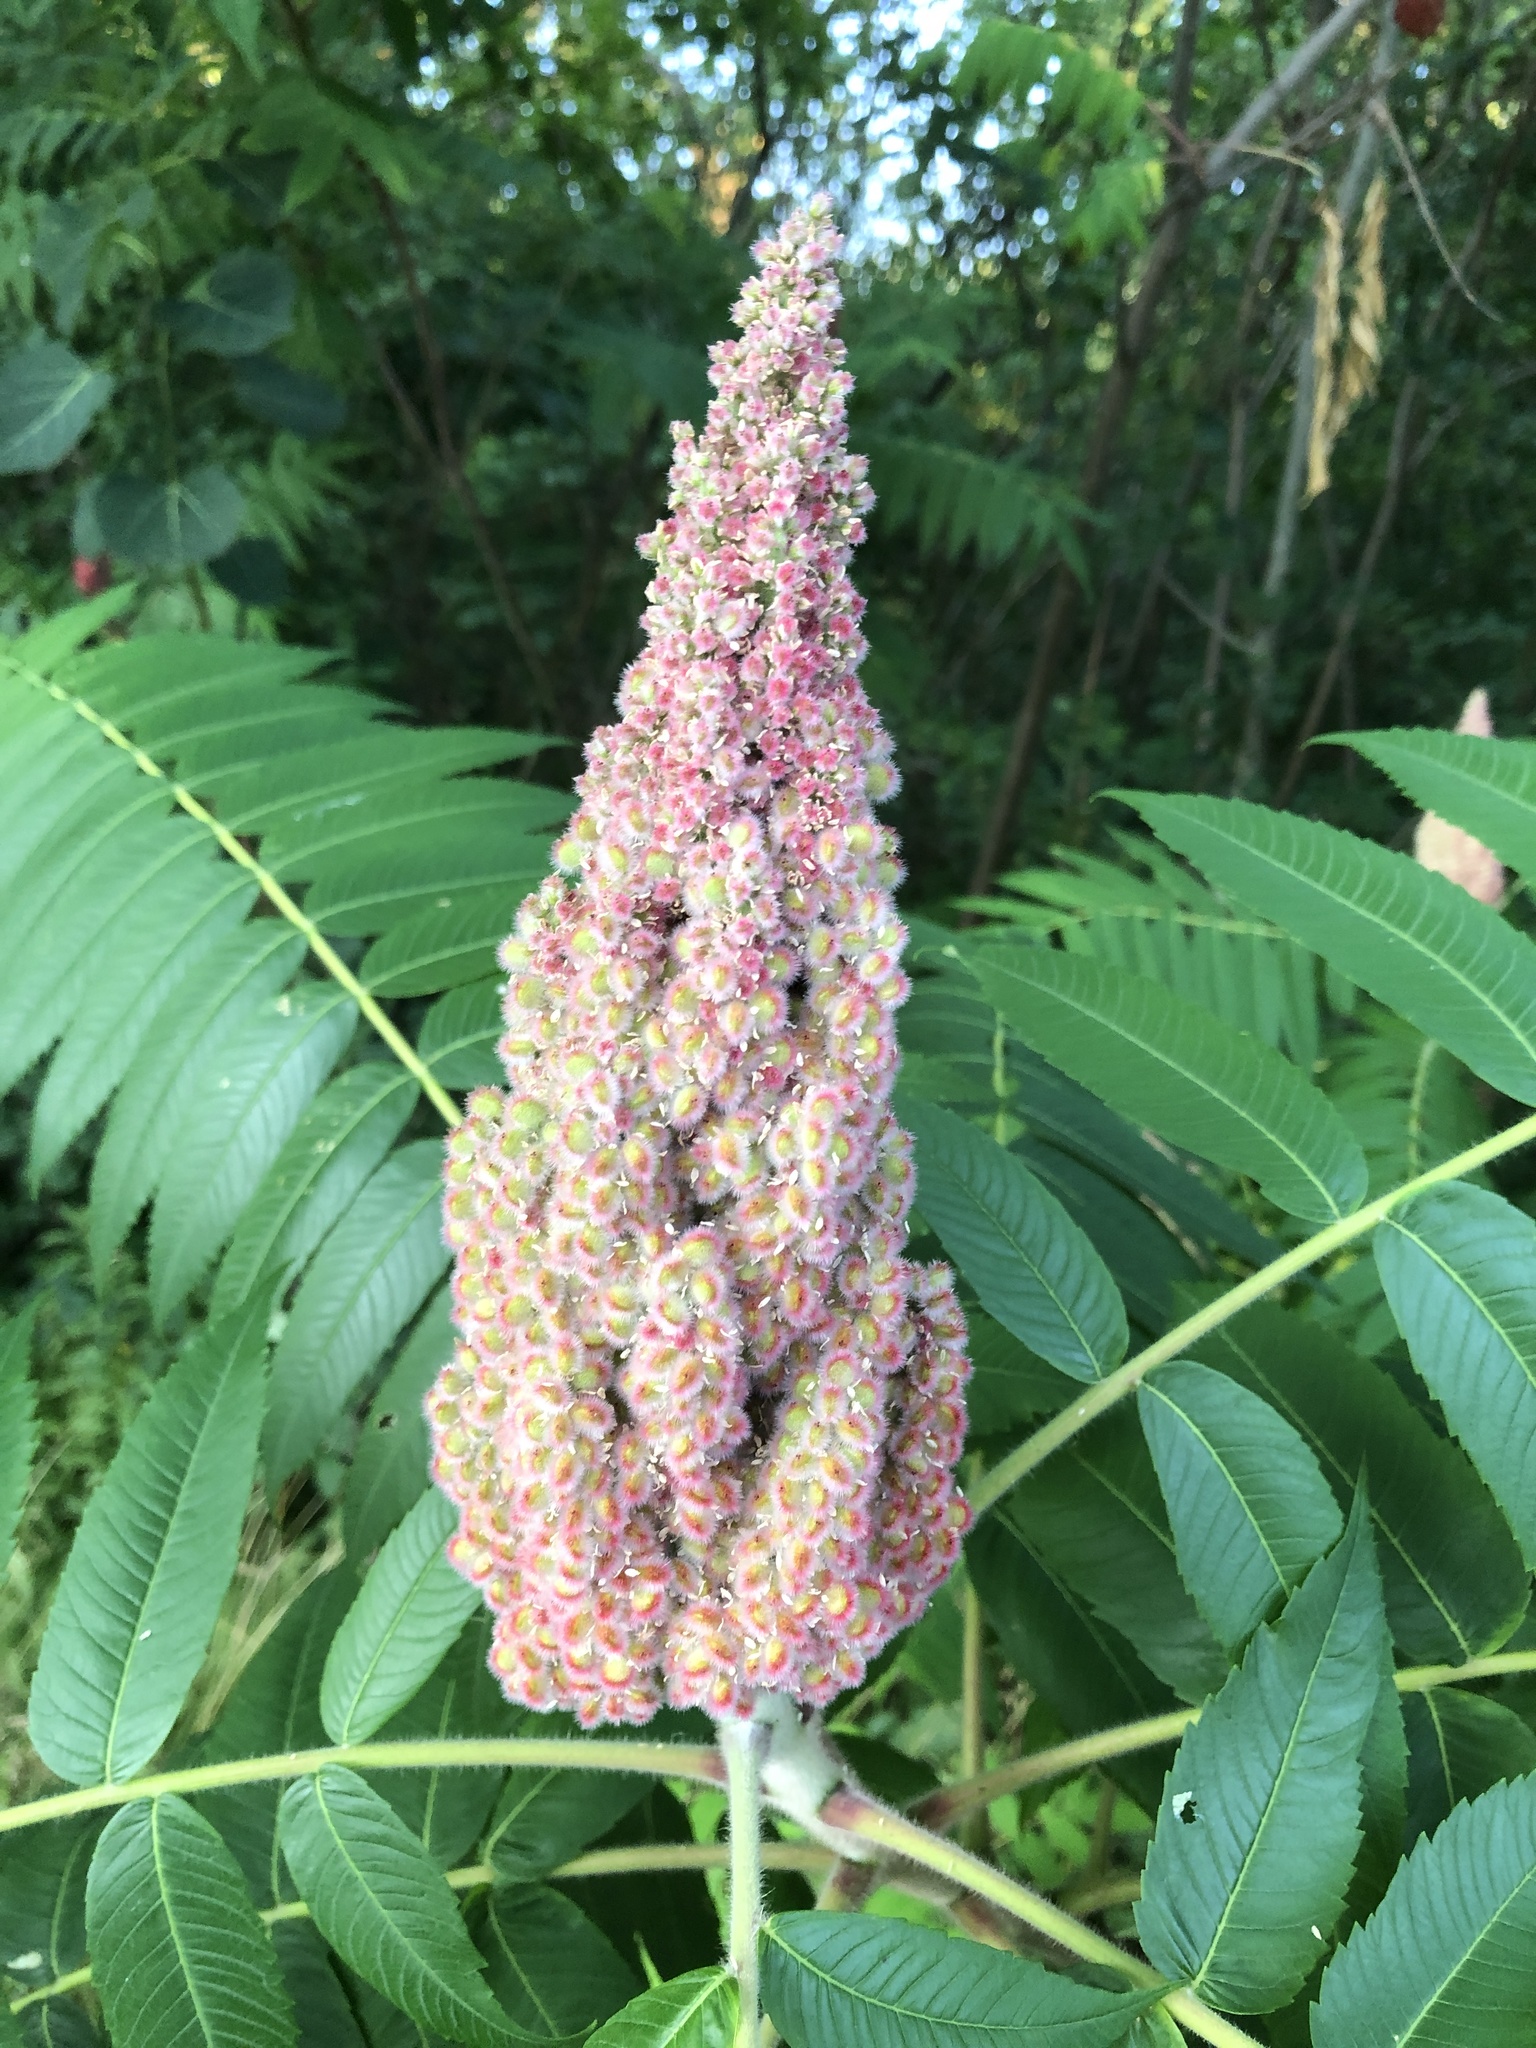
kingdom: Plantae
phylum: Tracheophyta
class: Magnoliopsida
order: Sapindales
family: Anacardiaceae
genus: Rhus
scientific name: Rhus typhina
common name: Staghorn sumac
